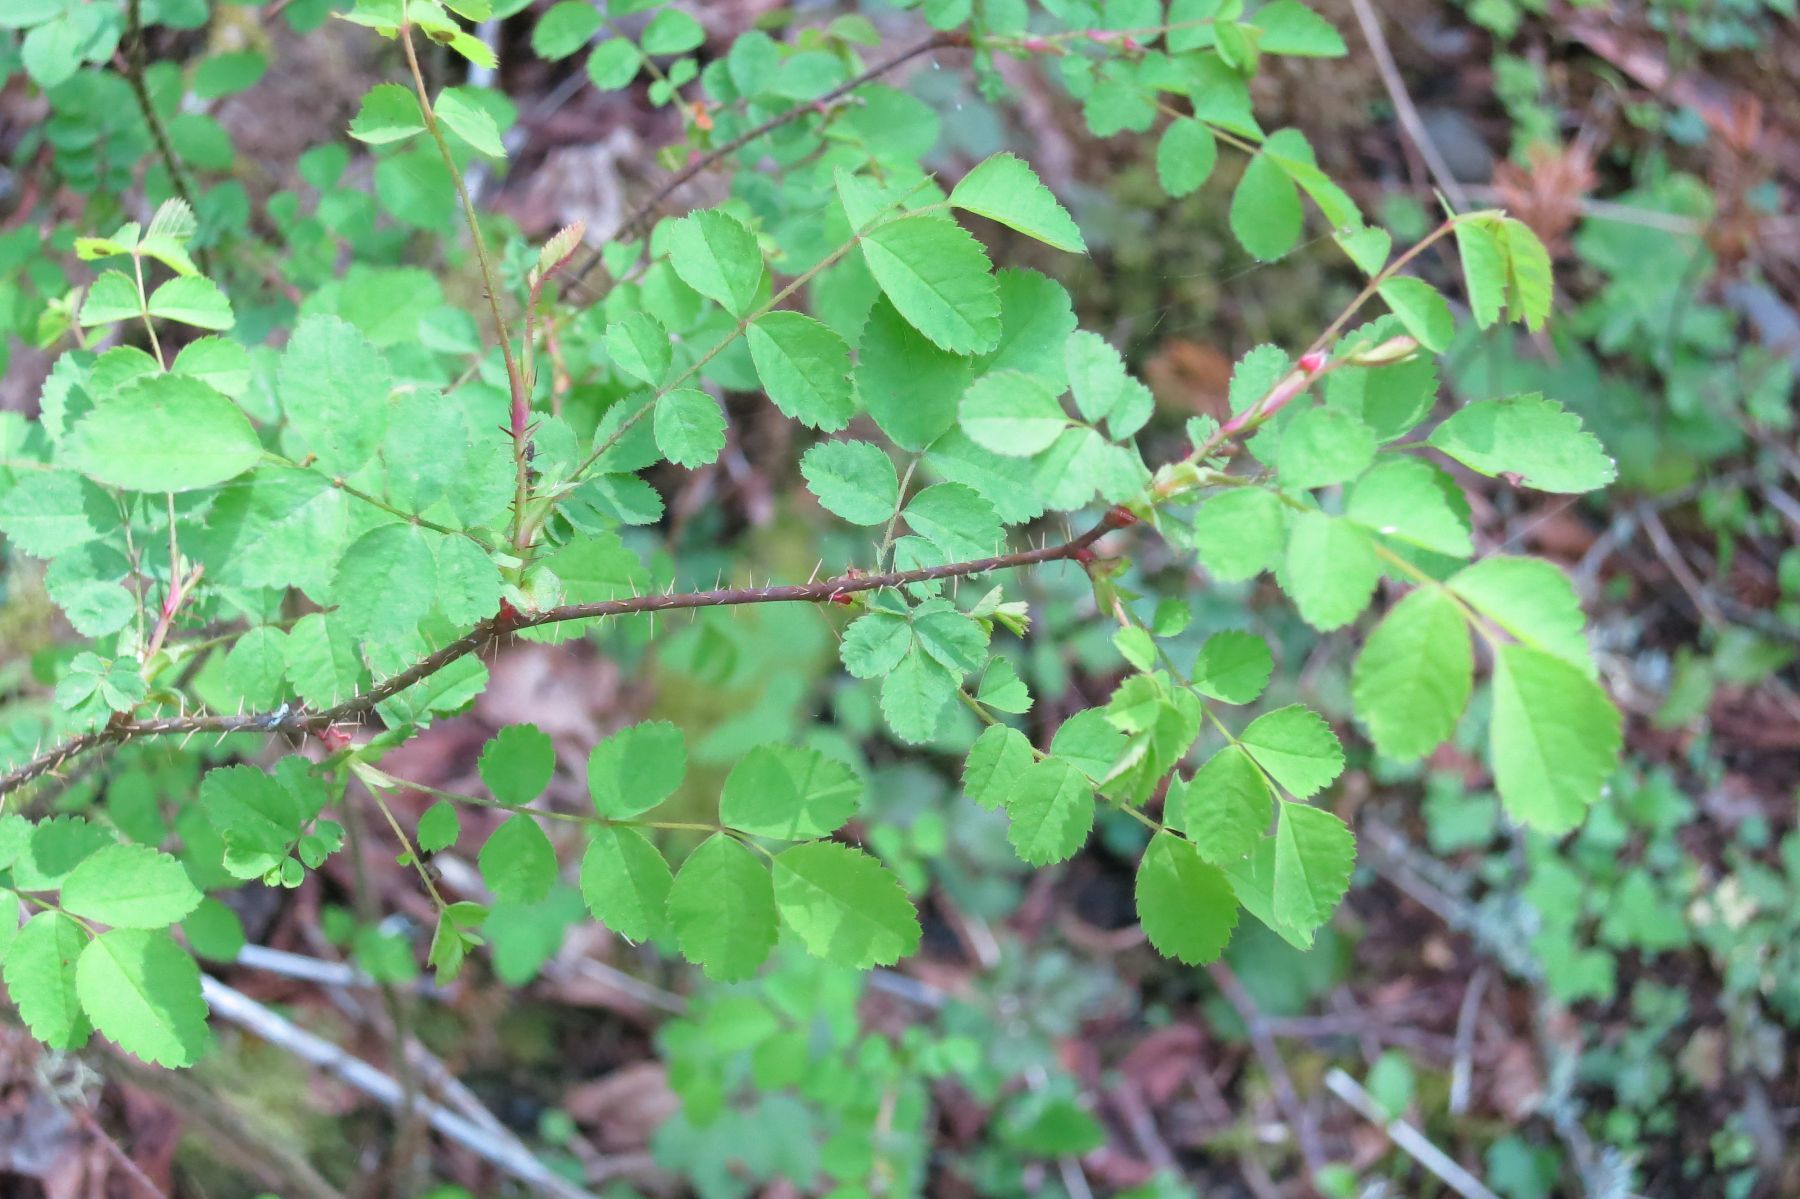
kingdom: Plantae
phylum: Tracheophyta
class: Magnoliopsida
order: Rosales
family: Rosaceae
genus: Rosa
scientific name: Rosa gymnocarpa
